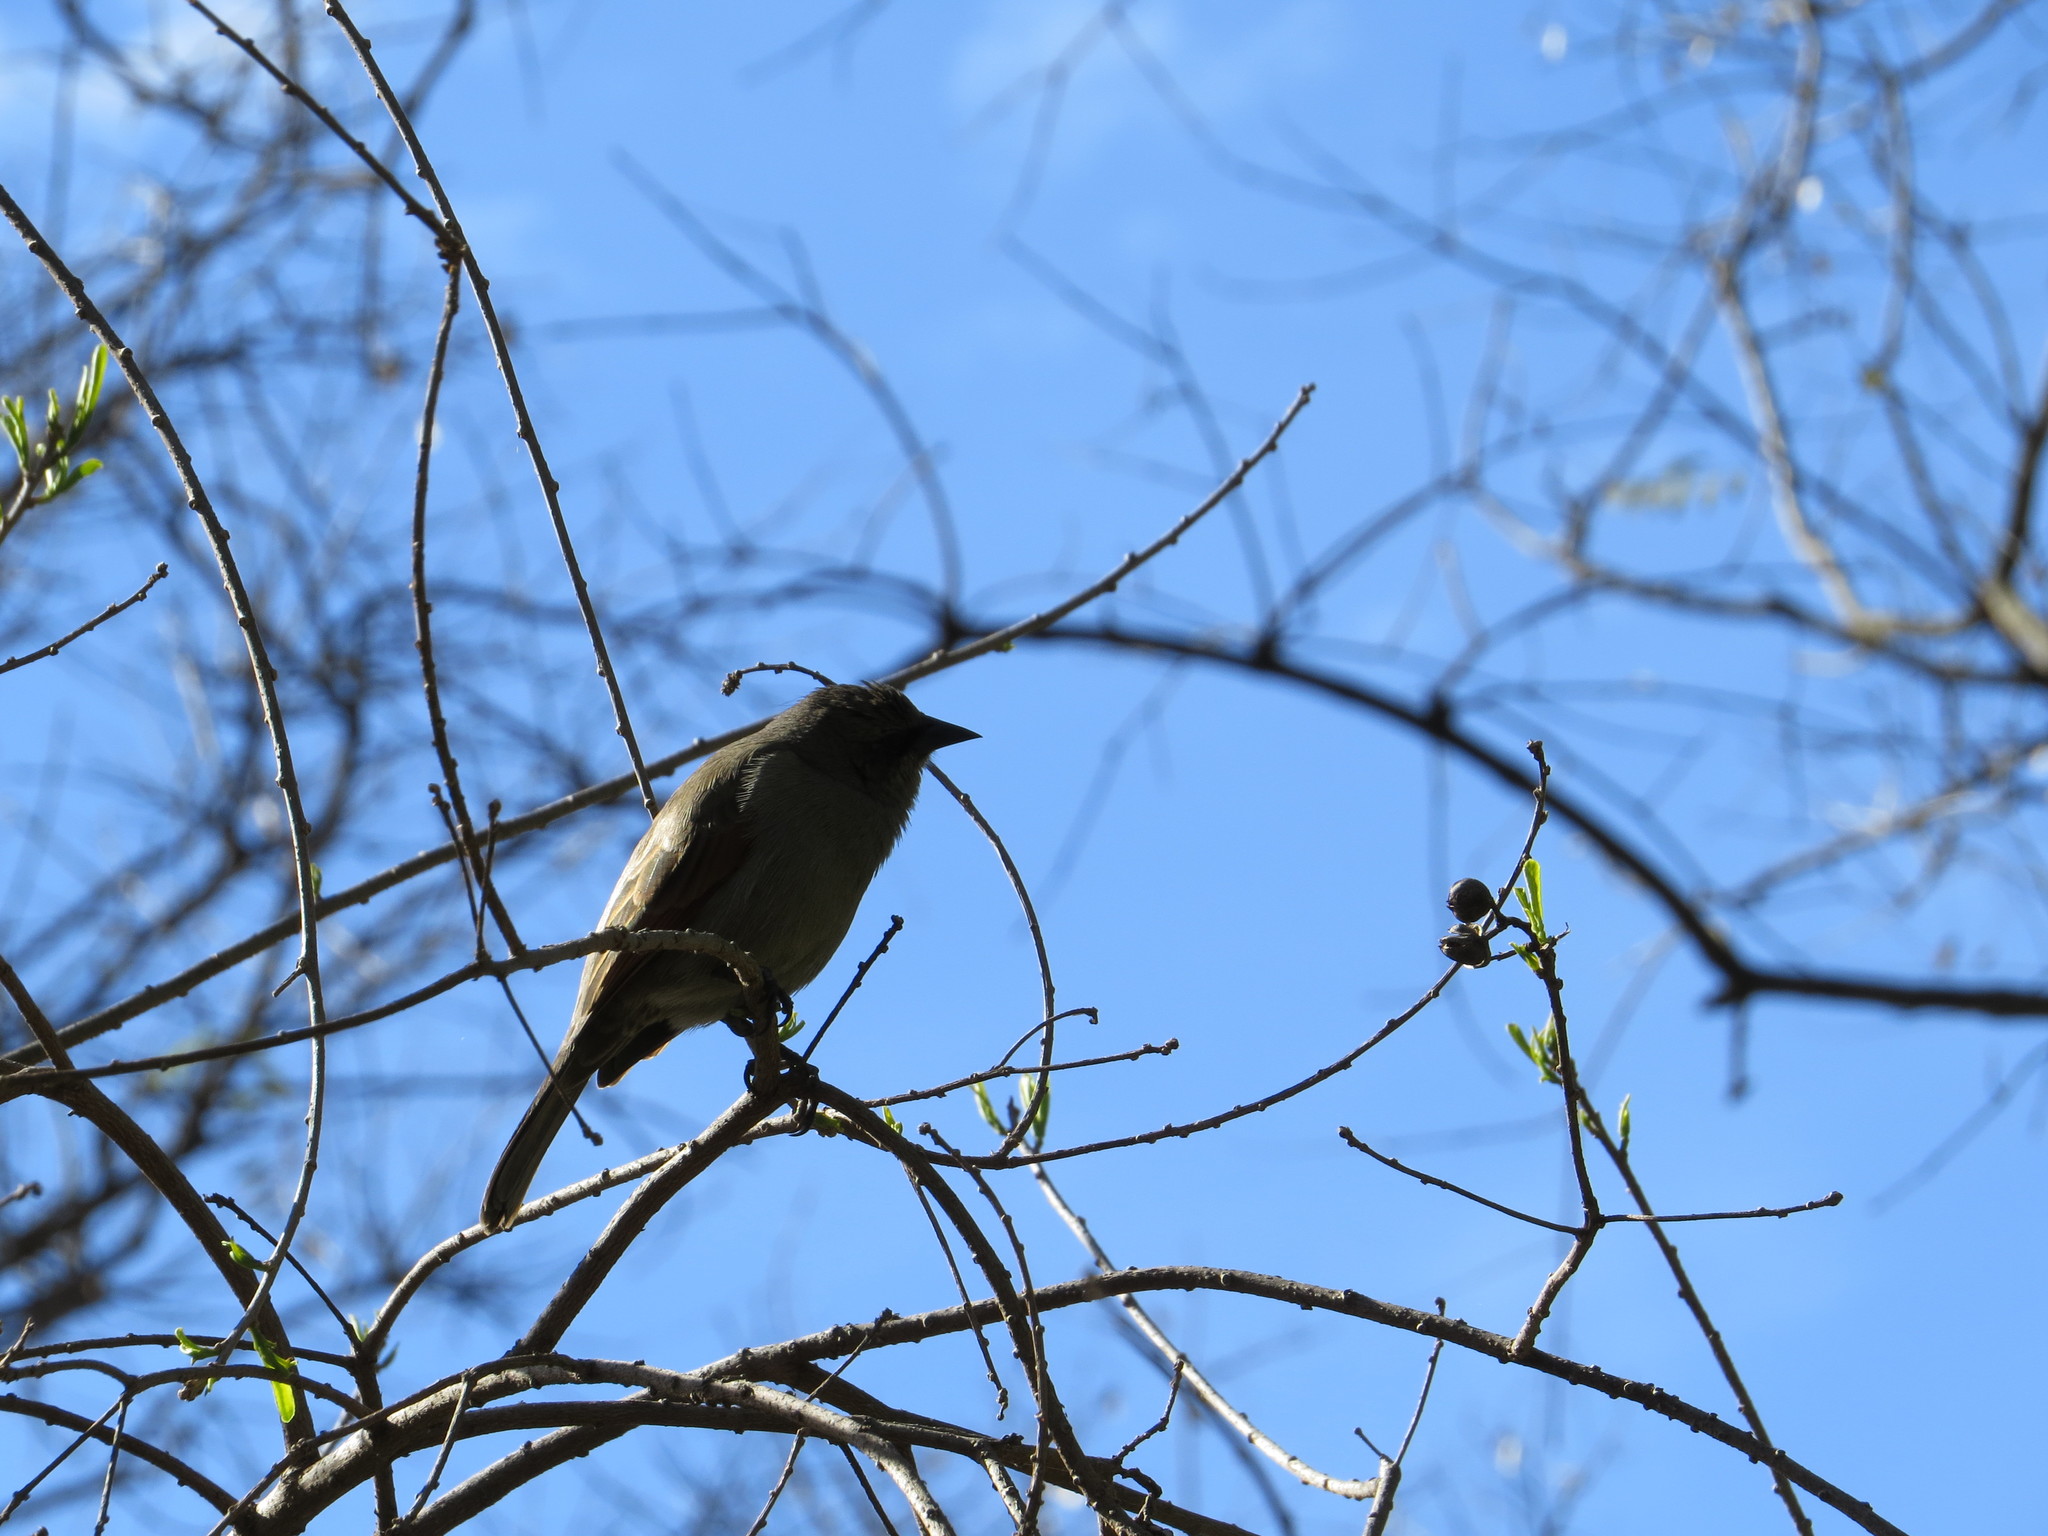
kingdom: Animalia
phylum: Chordata
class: Aves
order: Passeriformes
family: Icteridae
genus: Agelaioides
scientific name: Agelaioides badius
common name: Baywing
